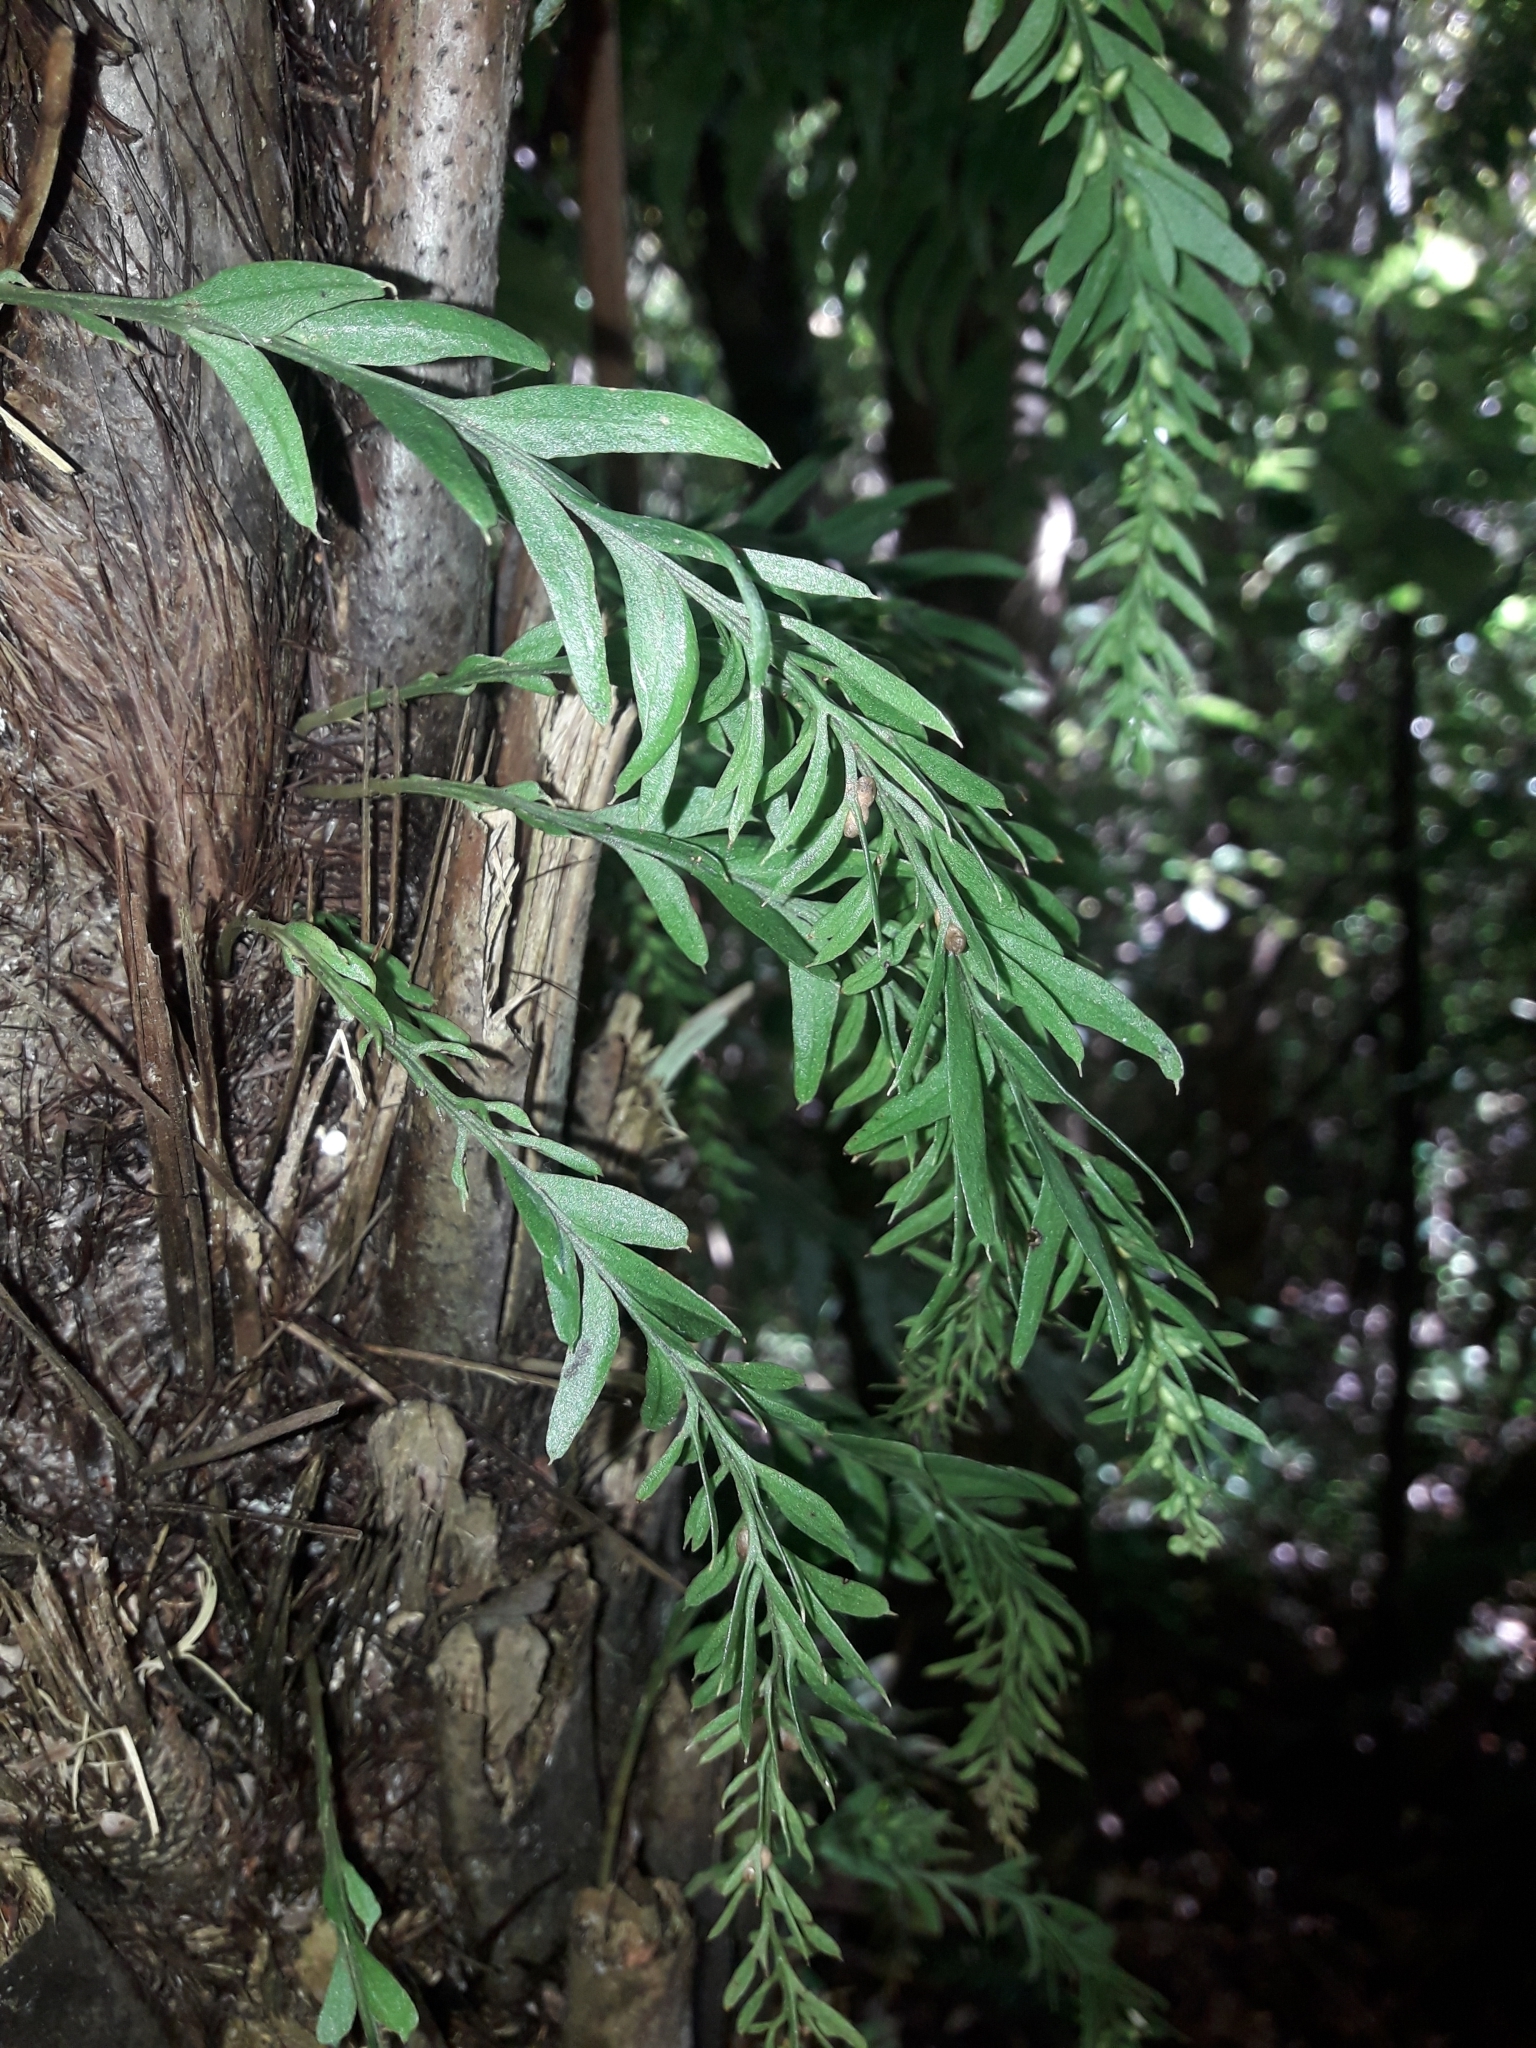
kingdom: Plantae
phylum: Tracheophyta
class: Polypodiopsida
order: Psilotales
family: Psilotaceae
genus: Tmesipteris
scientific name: Tmesipteris elongata
